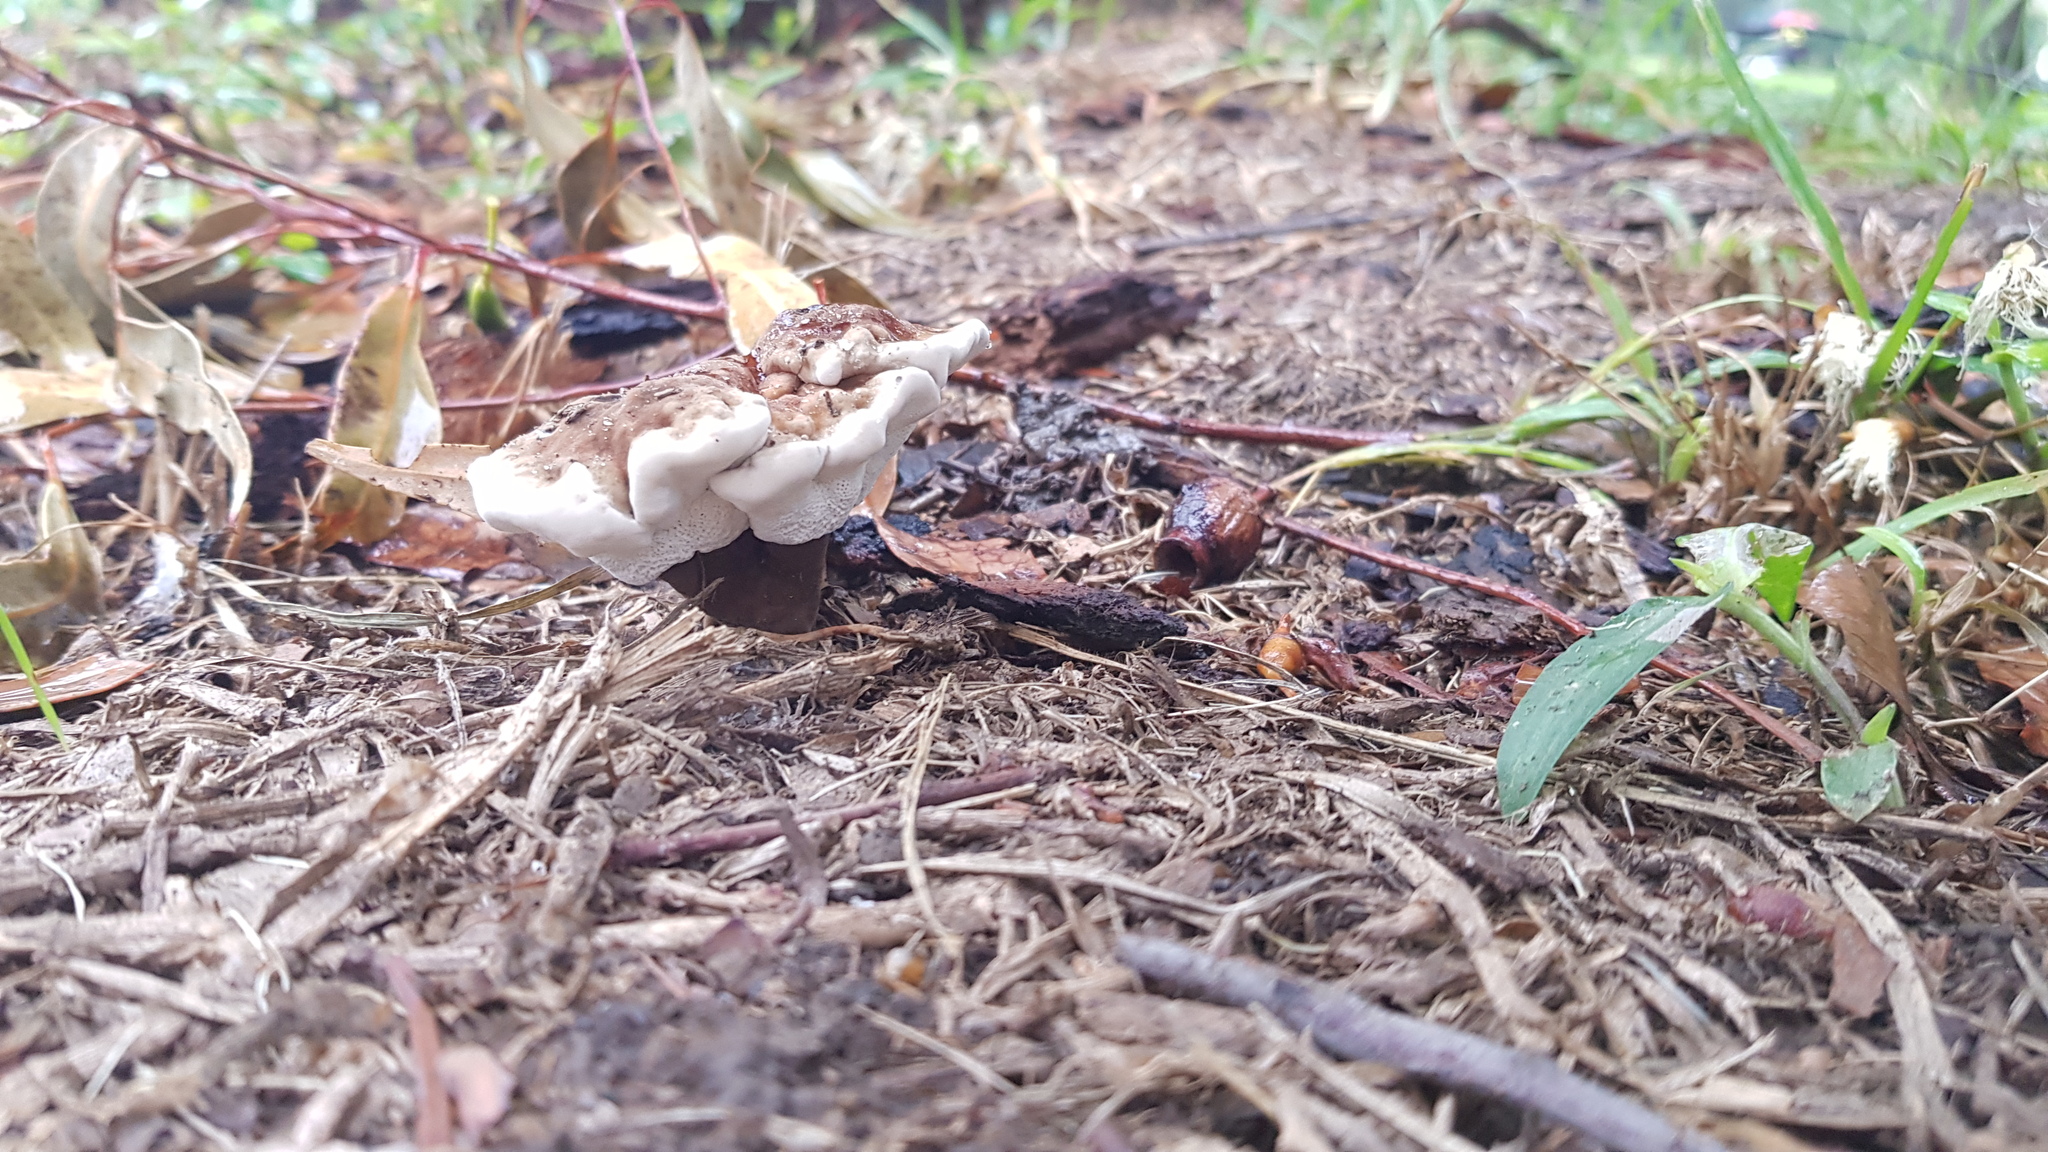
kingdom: Fungi
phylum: Basidiomycota
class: Agaricomycetes
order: Polyporales
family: Ganodermataceae
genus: Sanguinoderma
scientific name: Sanguinoderma rude
